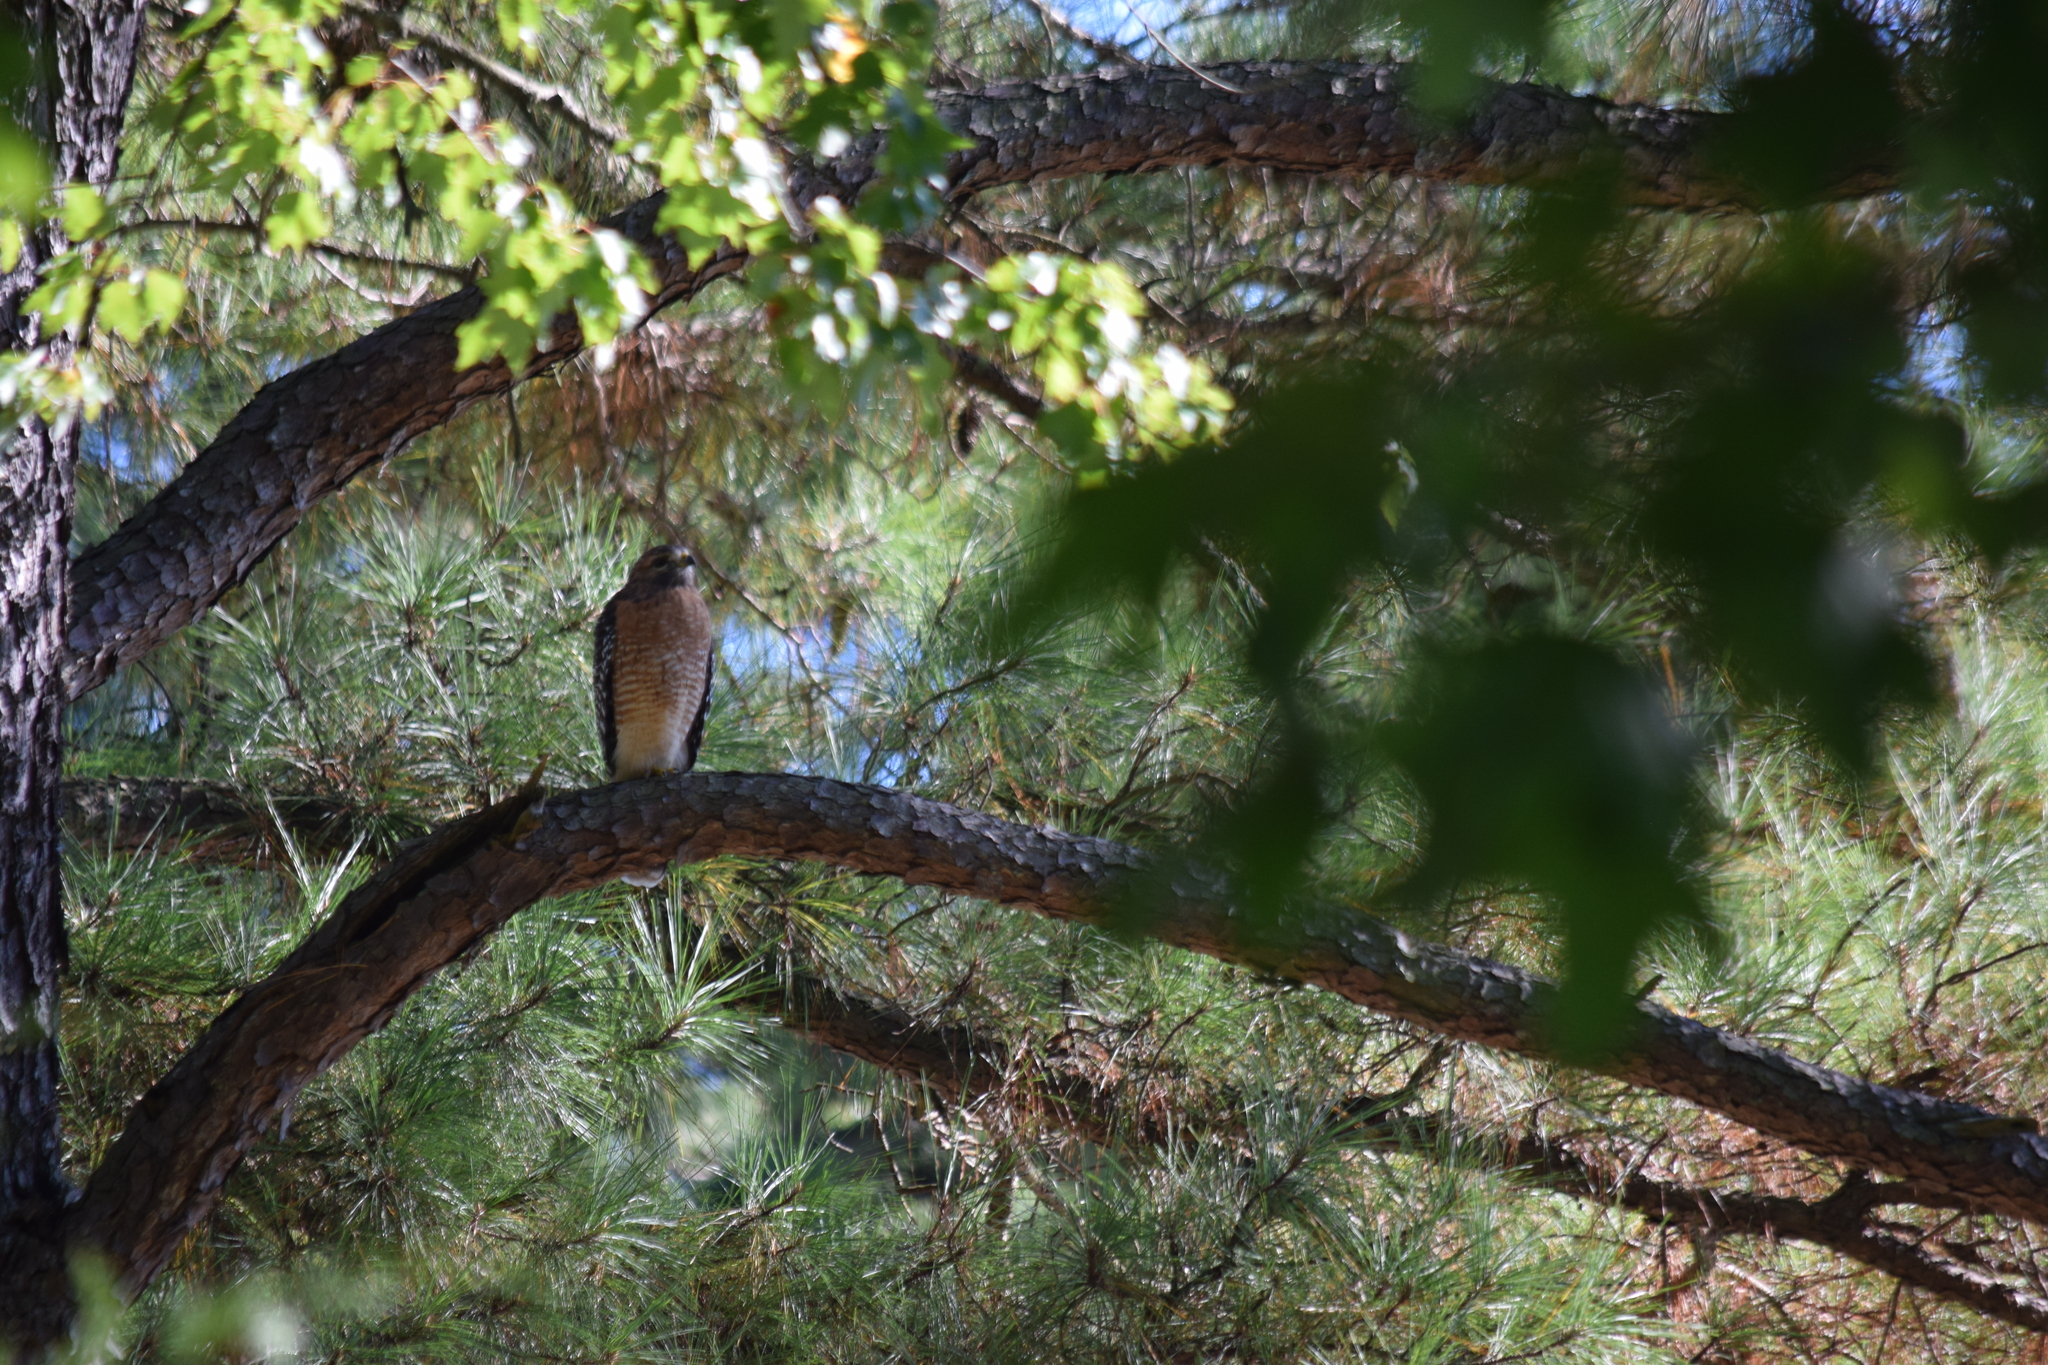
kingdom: Animalia
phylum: Chordata
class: Aves
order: Accipitriformes
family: Accipitridae
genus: Buteo
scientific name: Buteo lineatus
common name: Red-shouldered hawk
